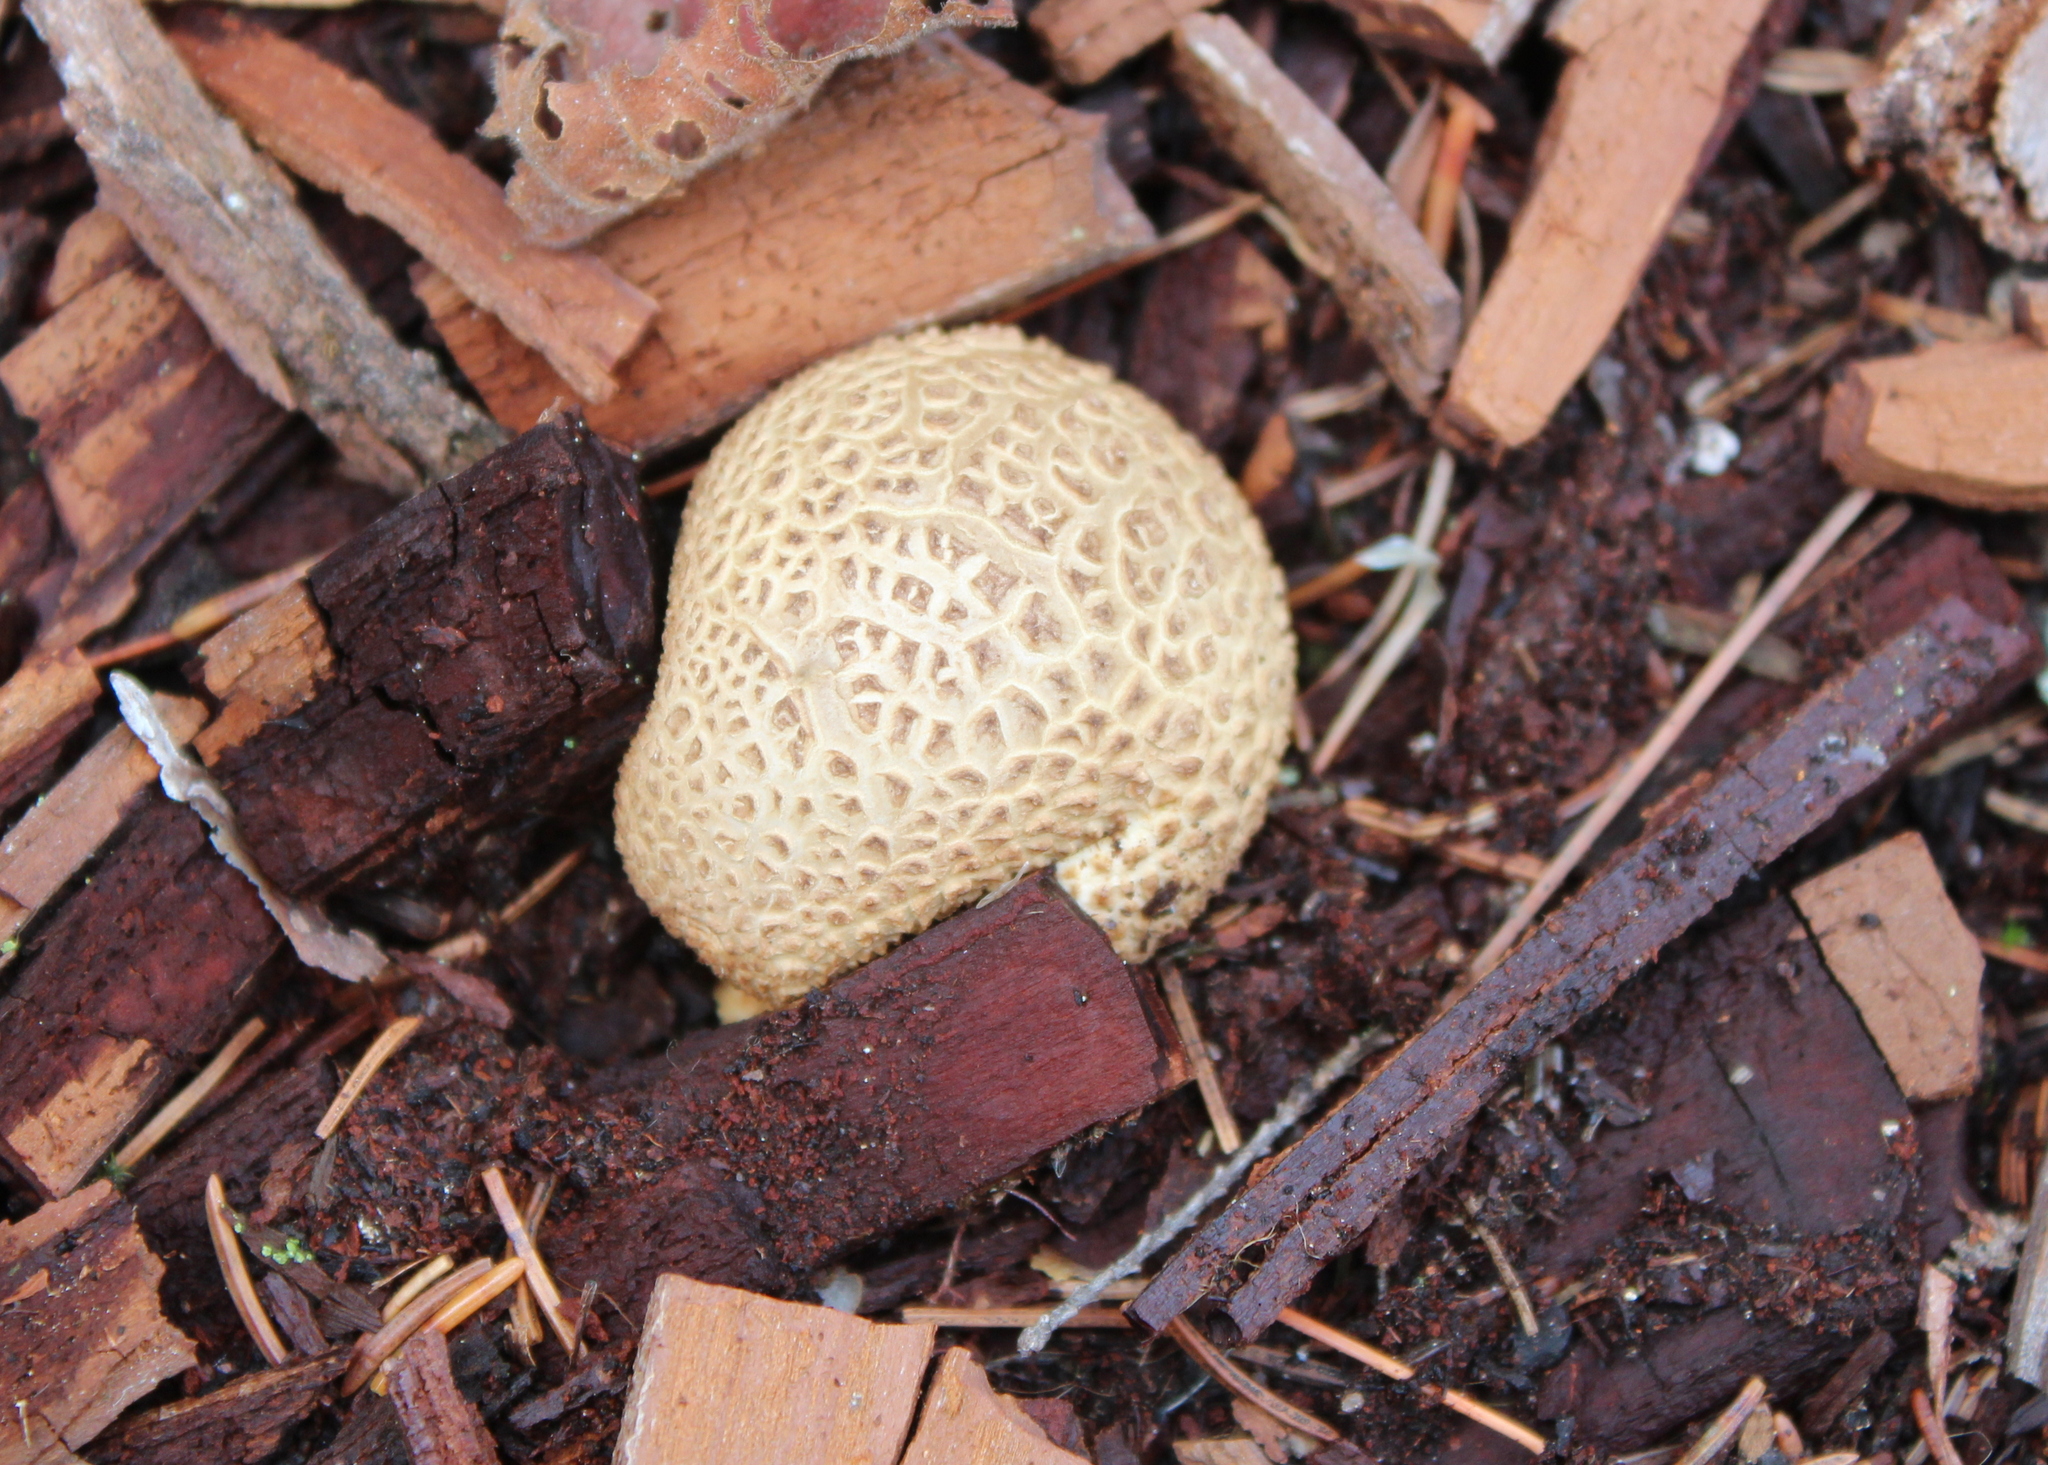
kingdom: Fungi
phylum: Basidiomycota
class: Agaricomycetes
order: Boletales
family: Sclerodermataceae
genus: Scleroderma
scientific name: Scleroderma citrinum
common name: Common earthball
